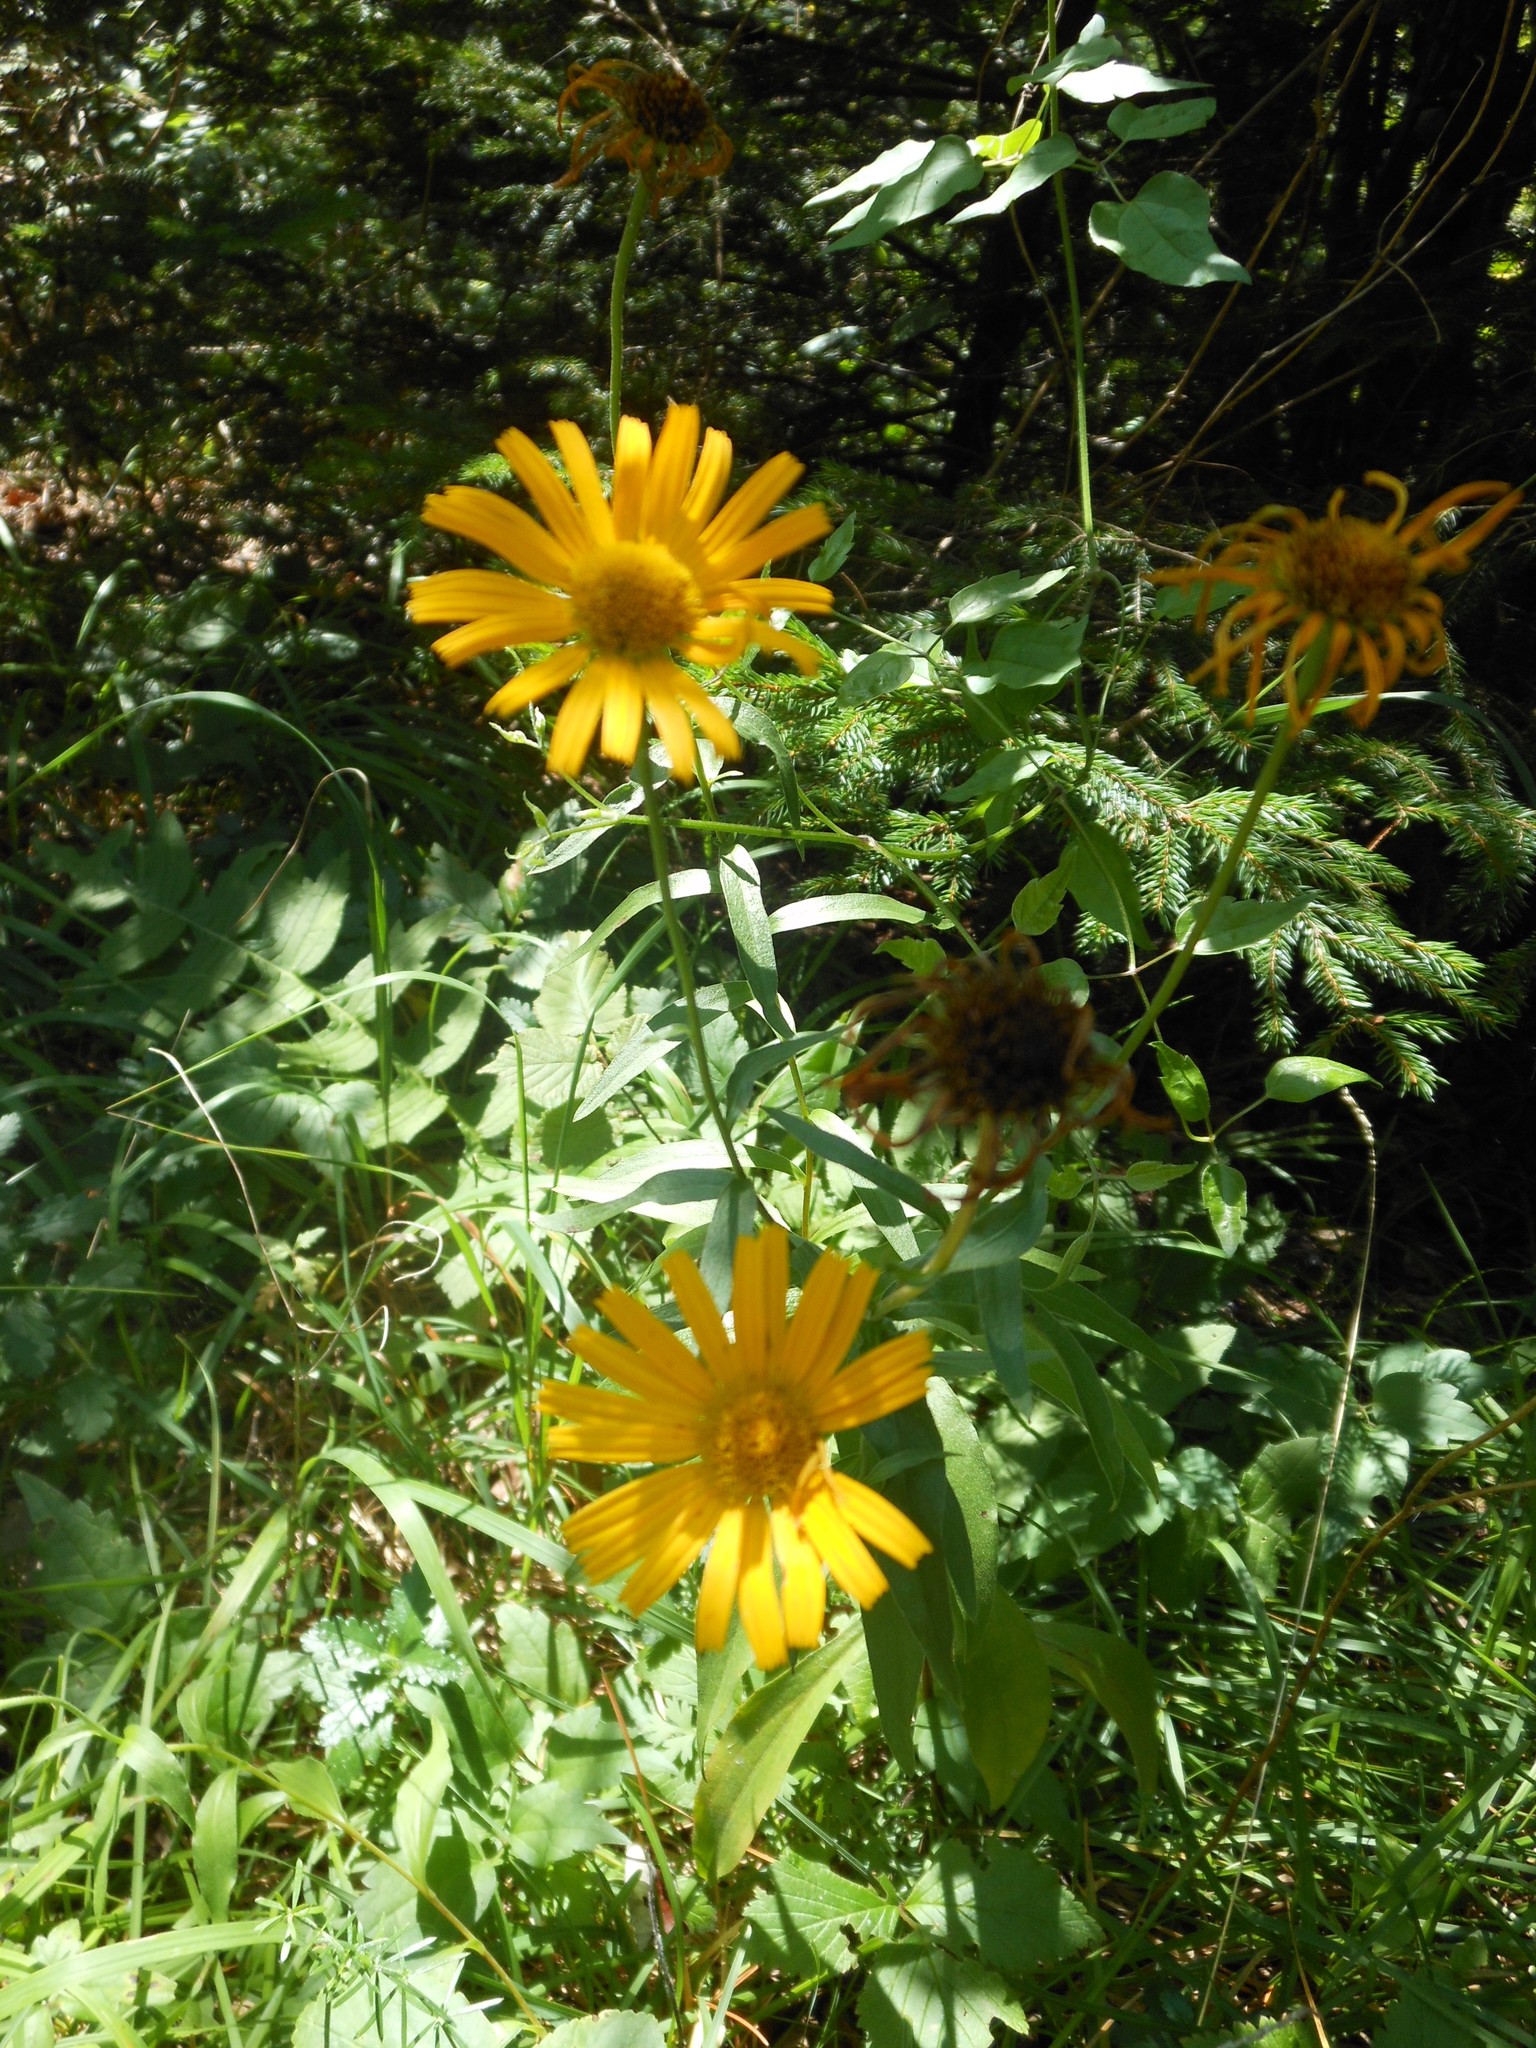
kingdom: Plantae
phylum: Tracheophyta
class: Magnoliopsida
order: Asterales
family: Asteraceae
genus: Buphthalmum
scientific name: Buphthalmum salicifolium
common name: Willow-leaved yellow-oxeye
